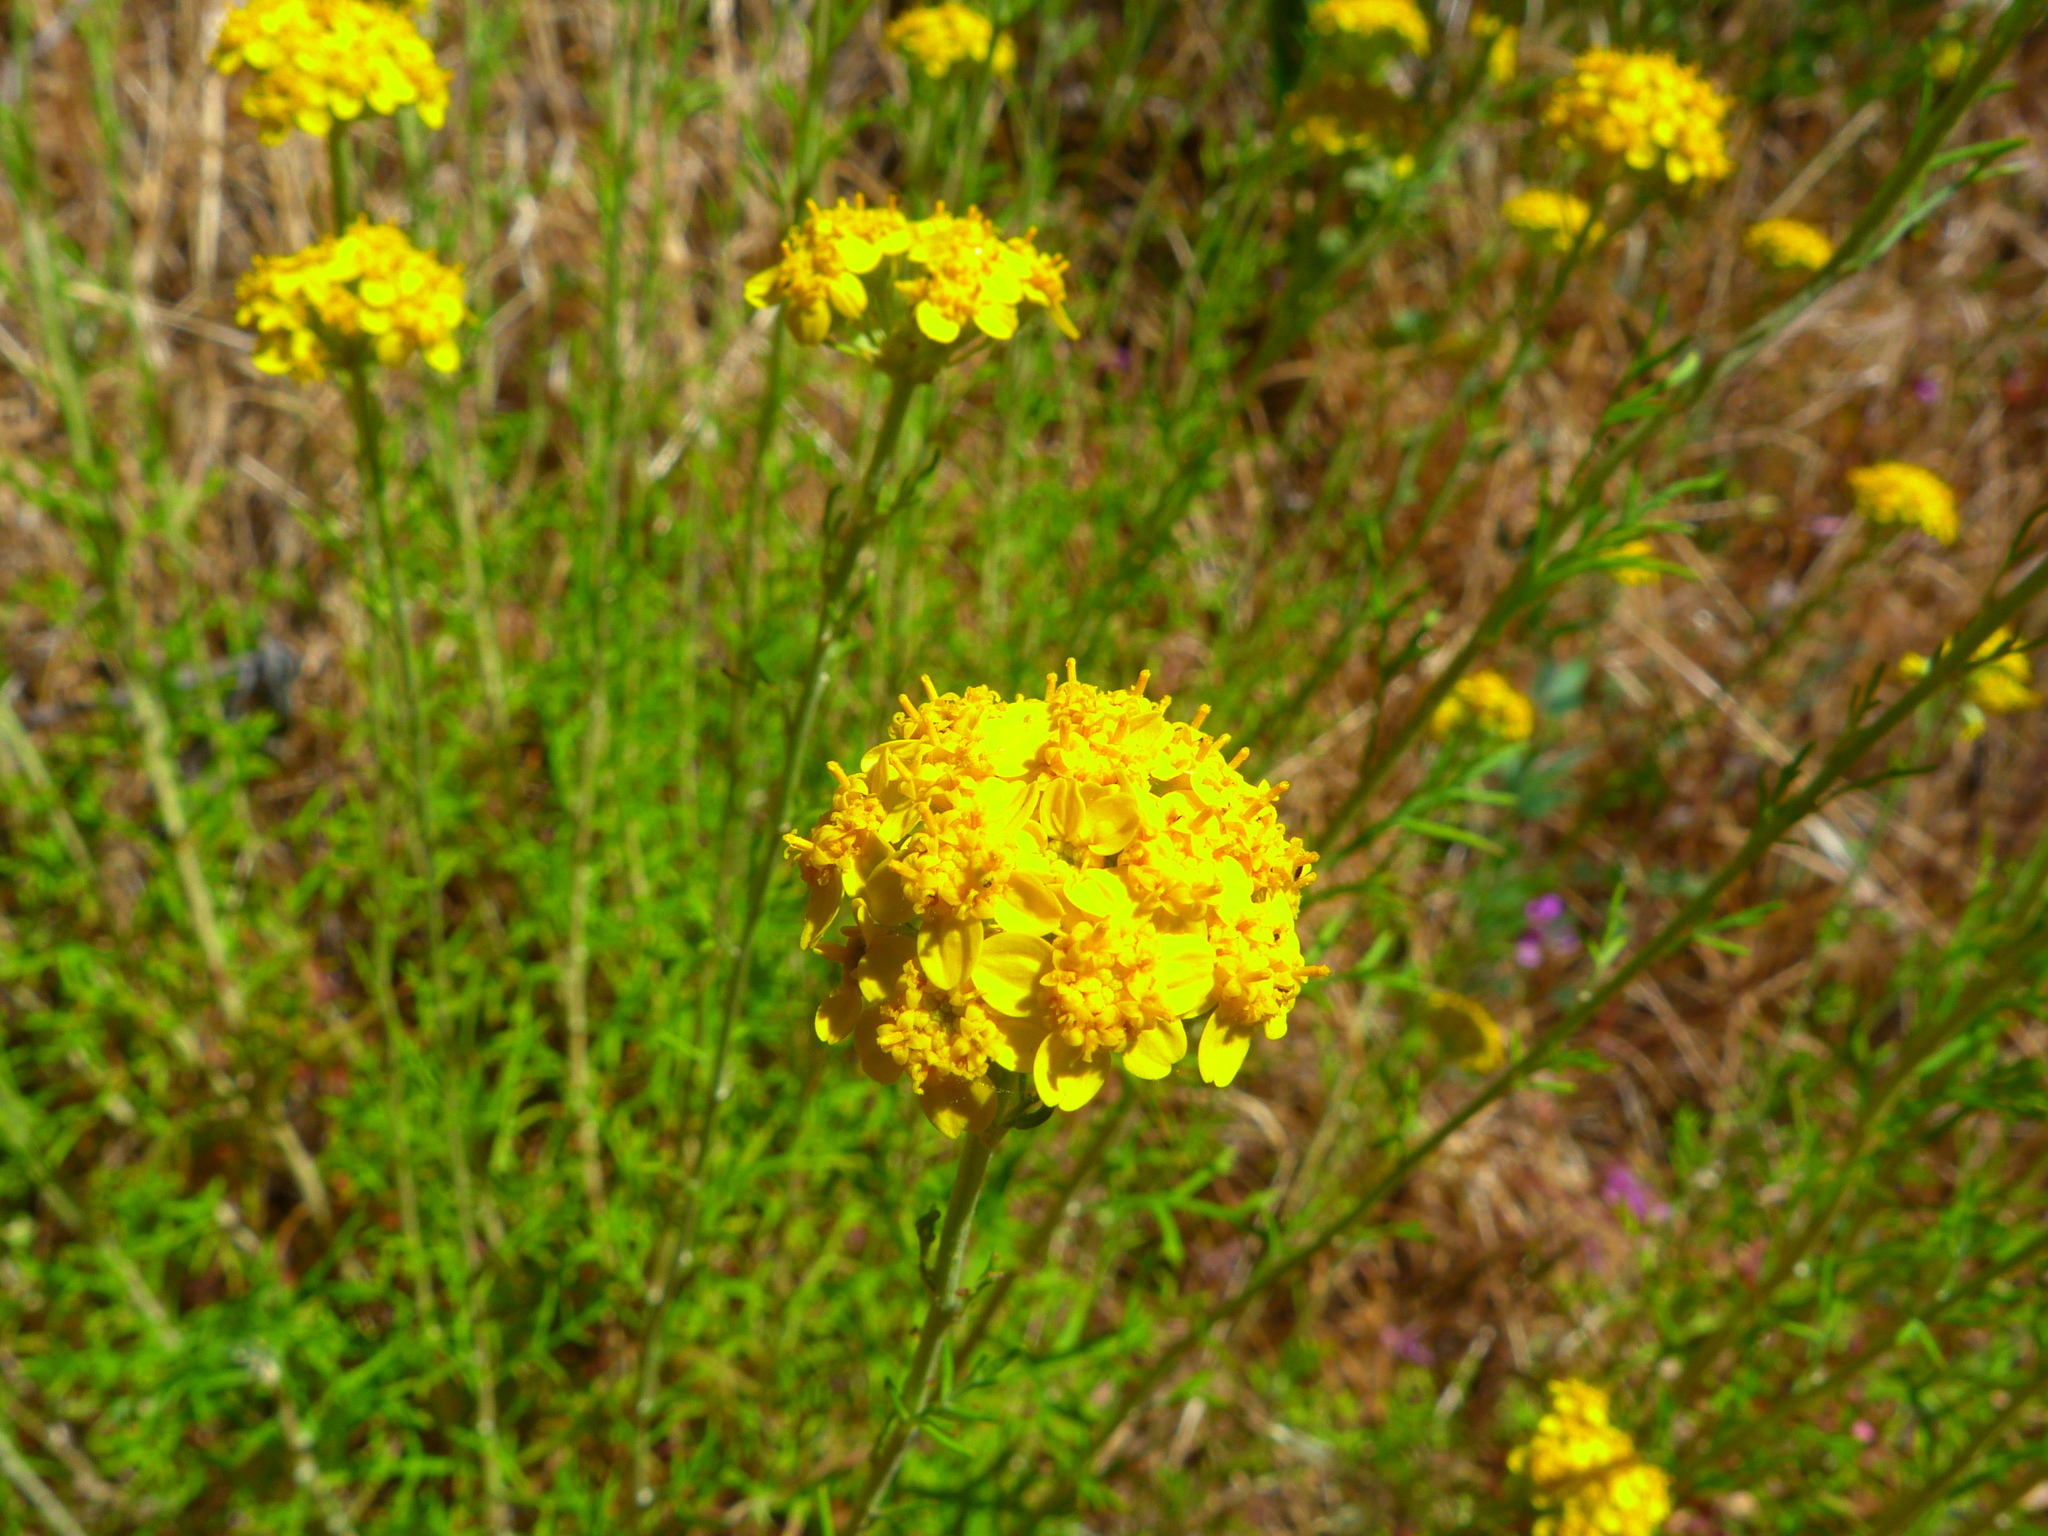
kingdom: Plantae
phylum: Tracheophyta
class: Magnoliopsida
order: Asterales
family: Asteraceae
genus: Eriophyllum
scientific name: Eriophyllum confertiflorum
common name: Golden-yarrow
